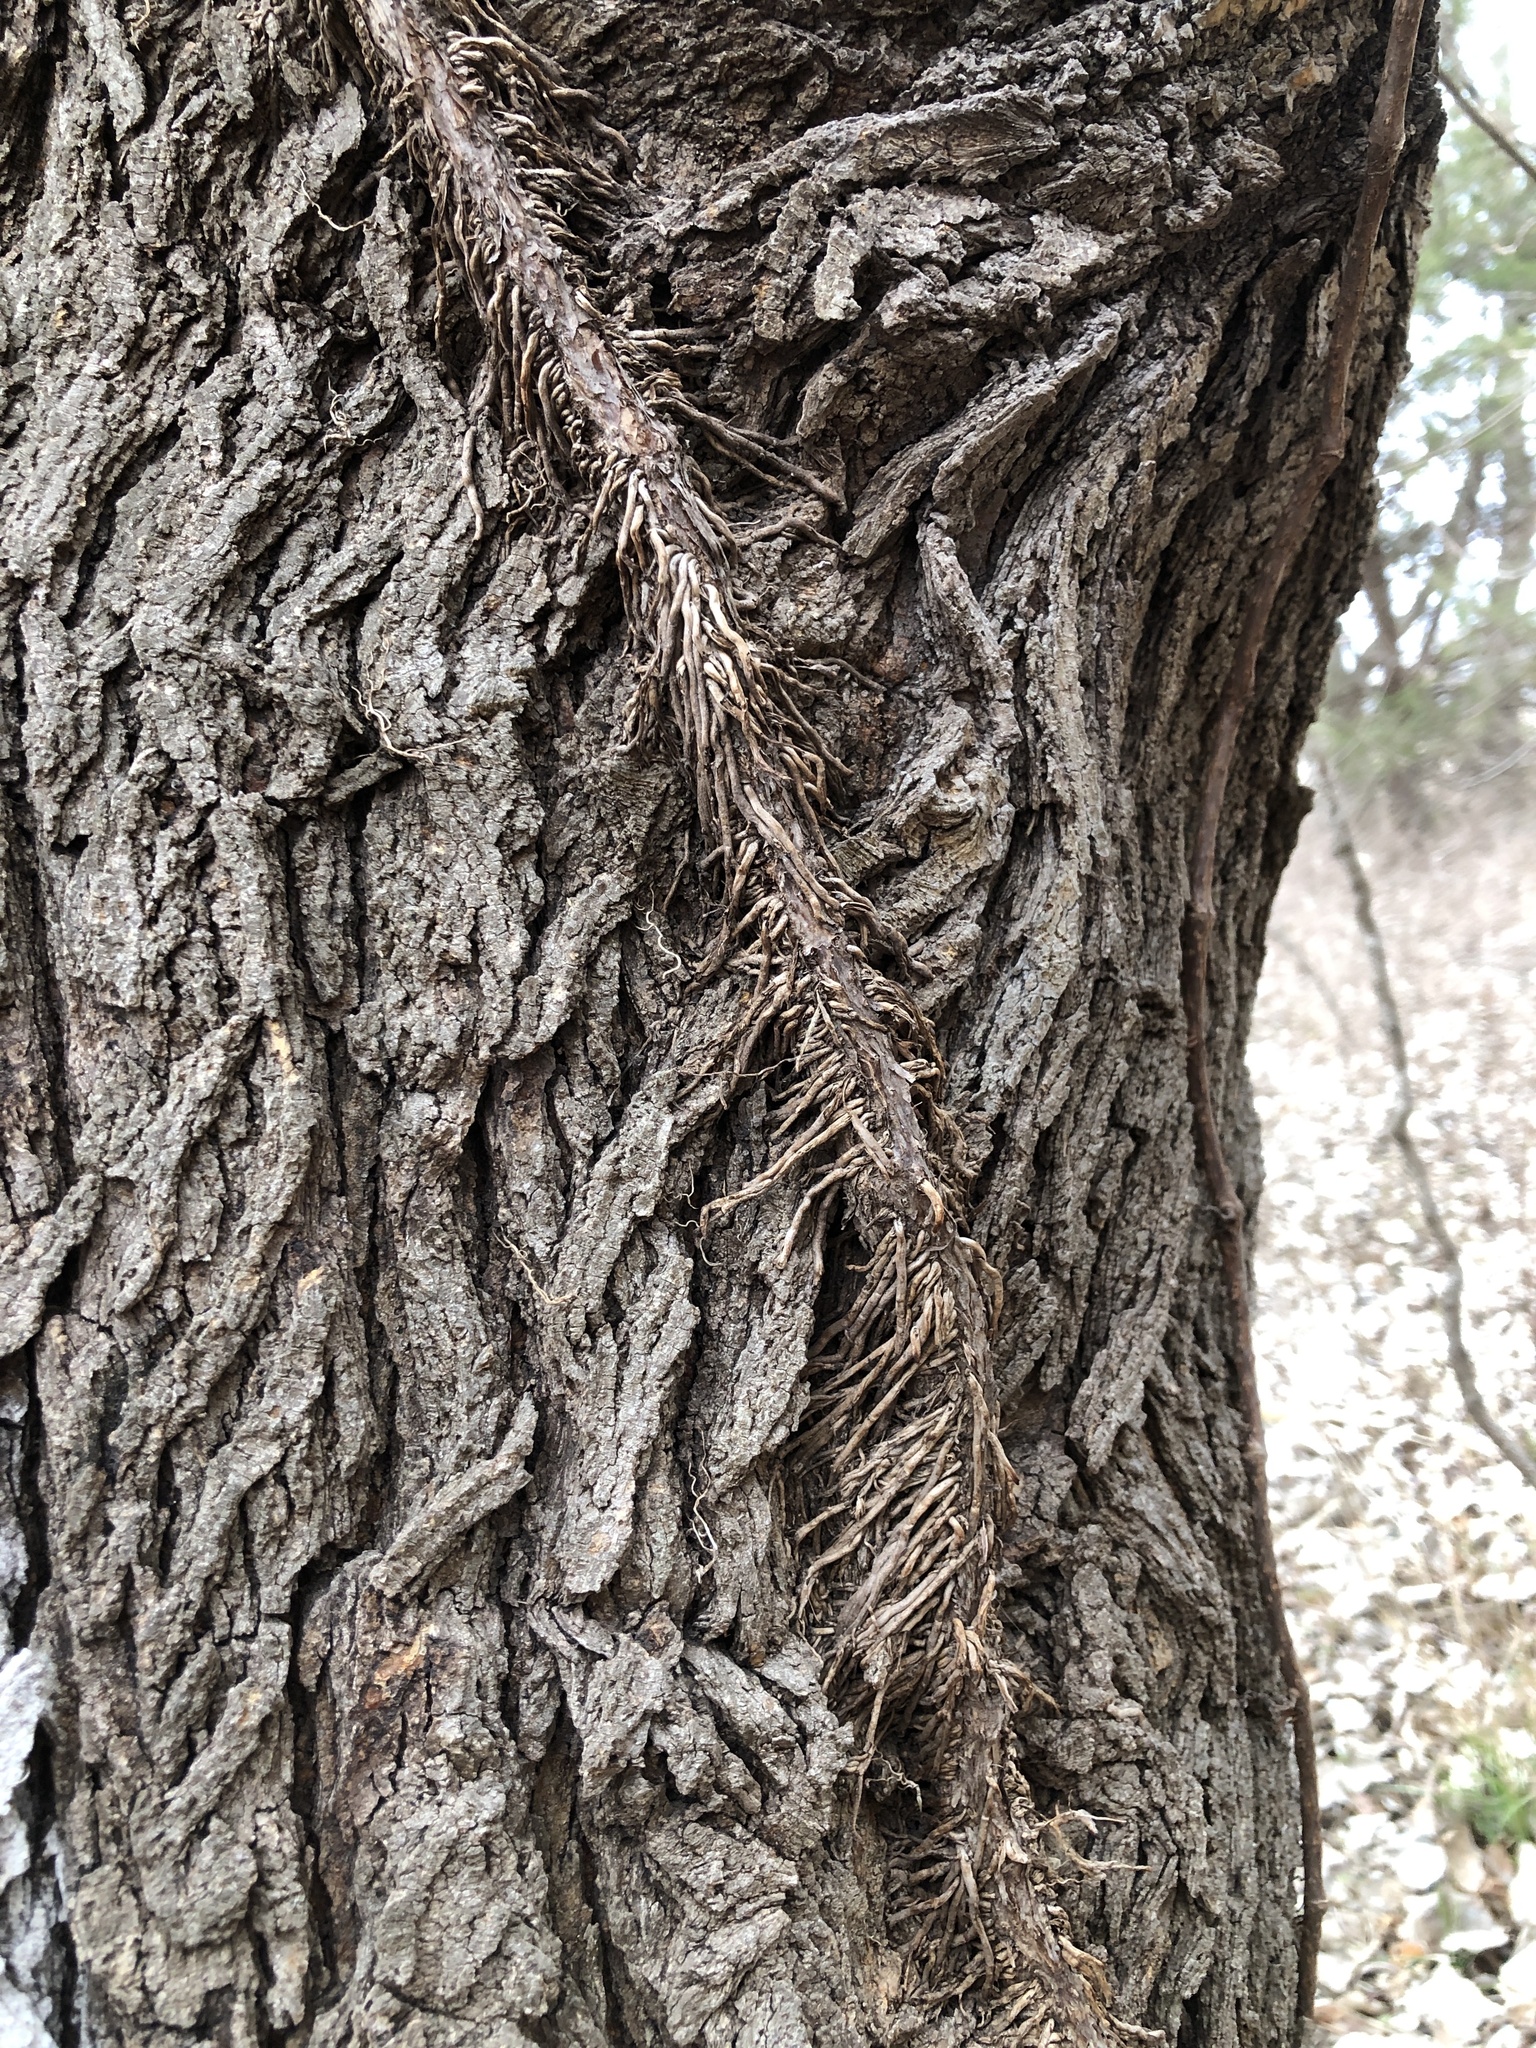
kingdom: Plantae
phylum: Tracheophyta
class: Magnoliopsida
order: Sapindales
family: Anacardiaceae
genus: Toxicodendron
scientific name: Toxicodendron radicans
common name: Poison ivy
